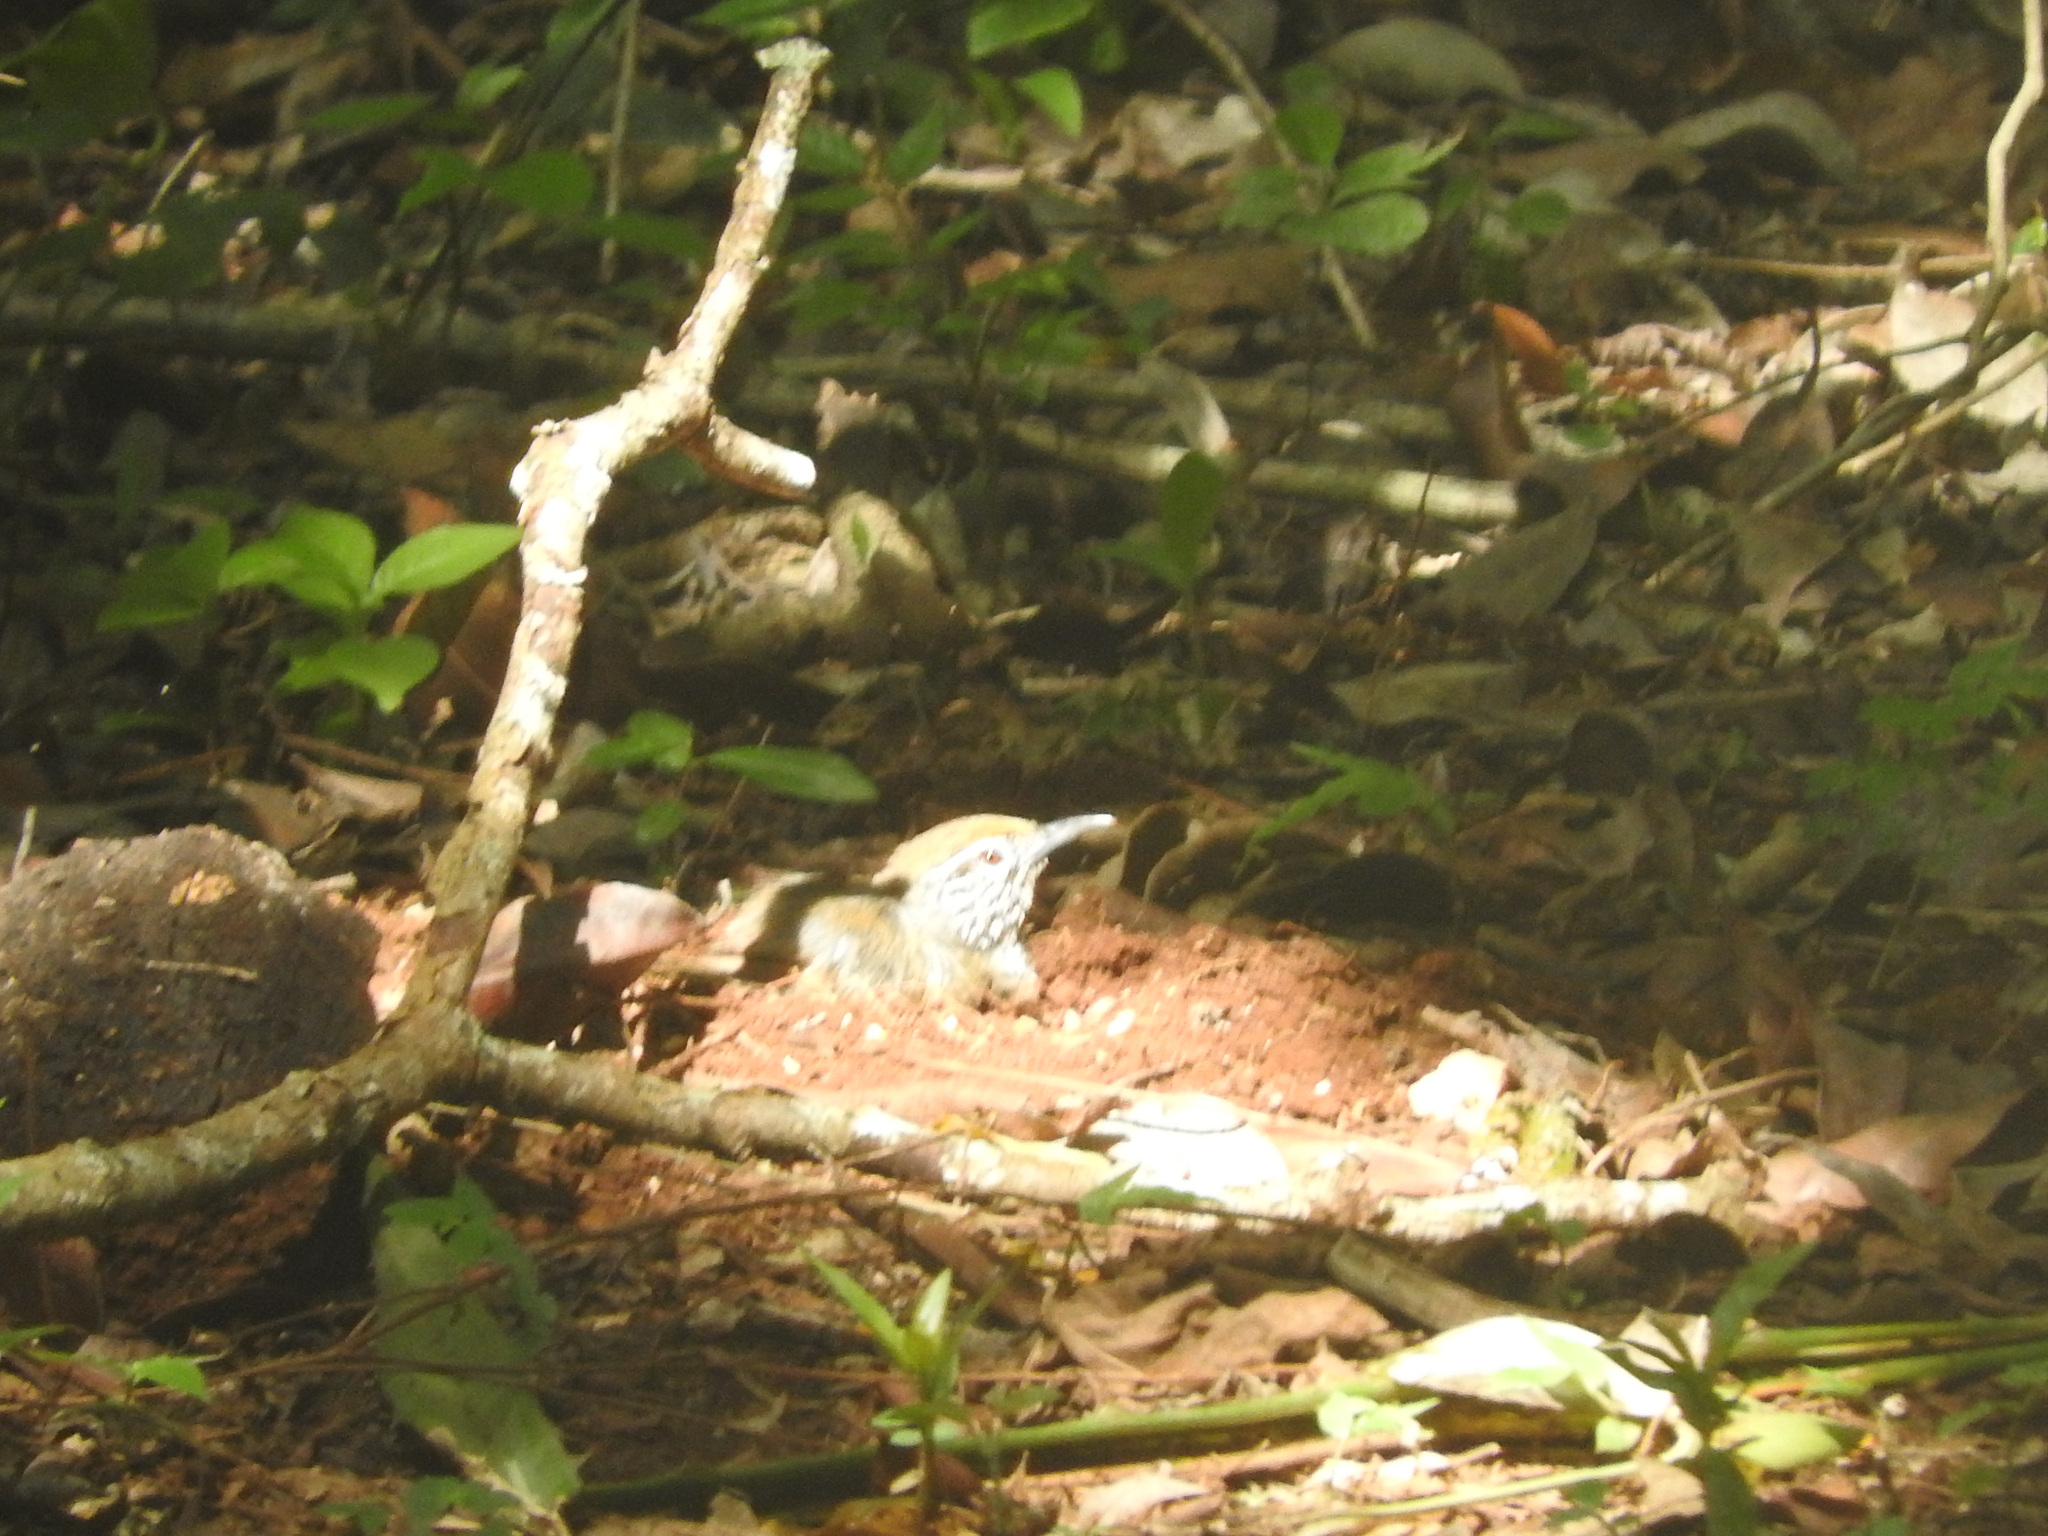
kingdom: Animalia
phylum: Chordata
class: Aves
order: Passeriformes
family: Troglodytidae
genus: Pheugopedius
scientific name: Pheugopedius maculipectus
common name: Spot-breasted wren
